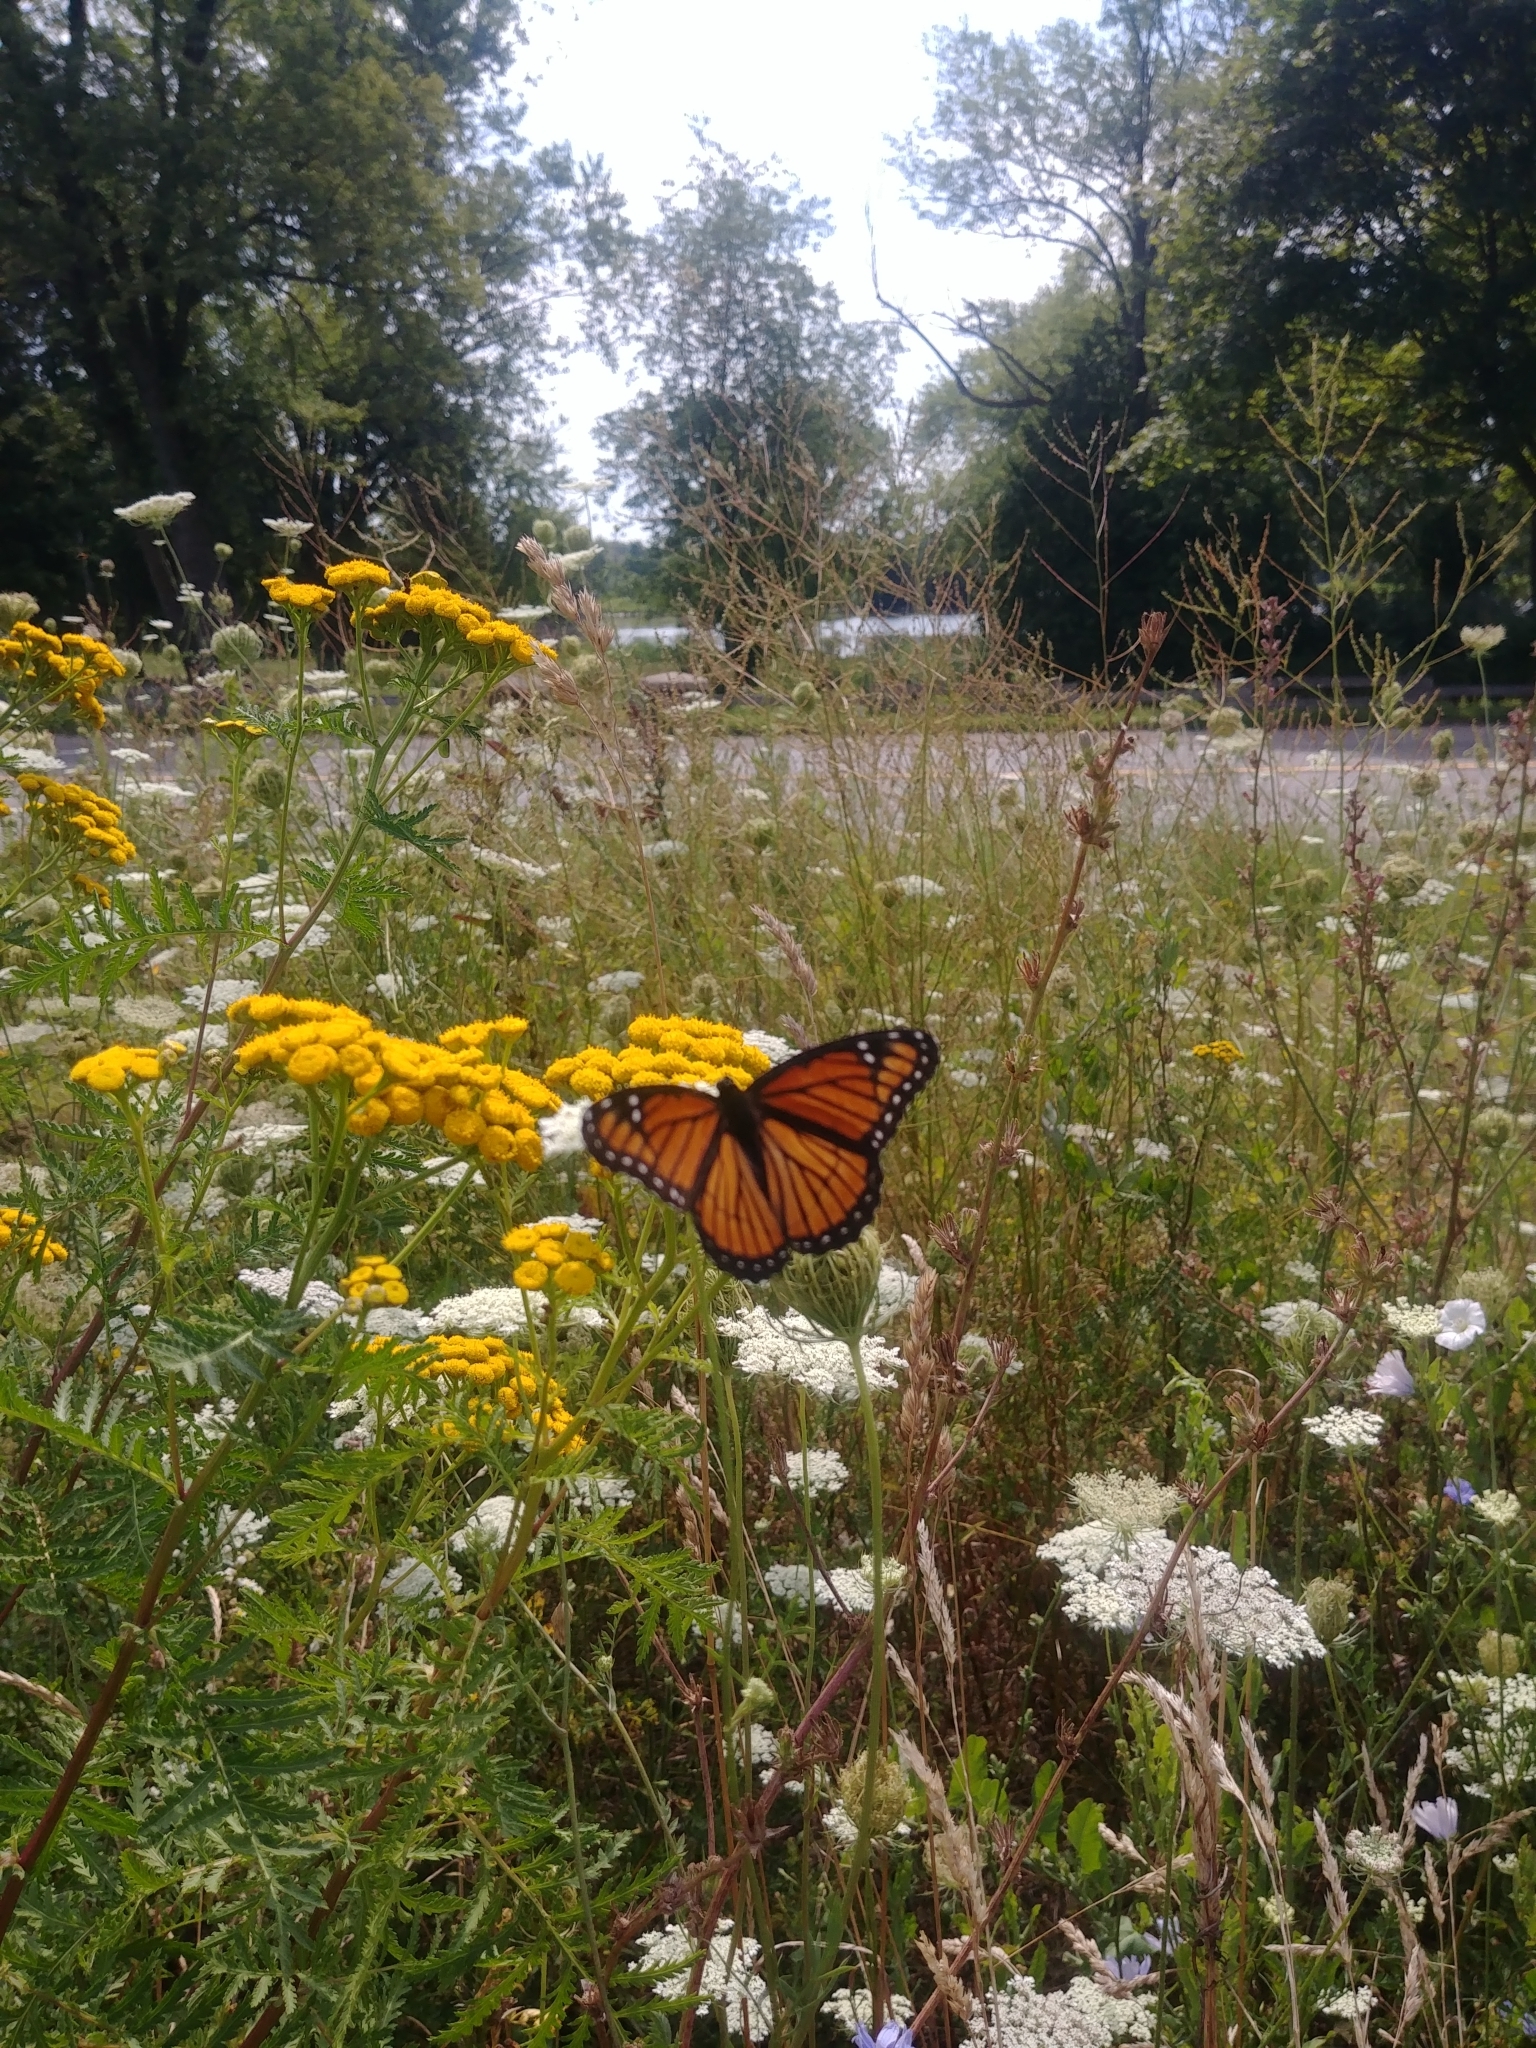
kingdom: Animalia
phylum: Arthropoda
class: Insecta
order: Lepidoptera
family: Nymphalidae
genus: Limenitis
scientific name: Limenitis archippus
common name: Viceroy
